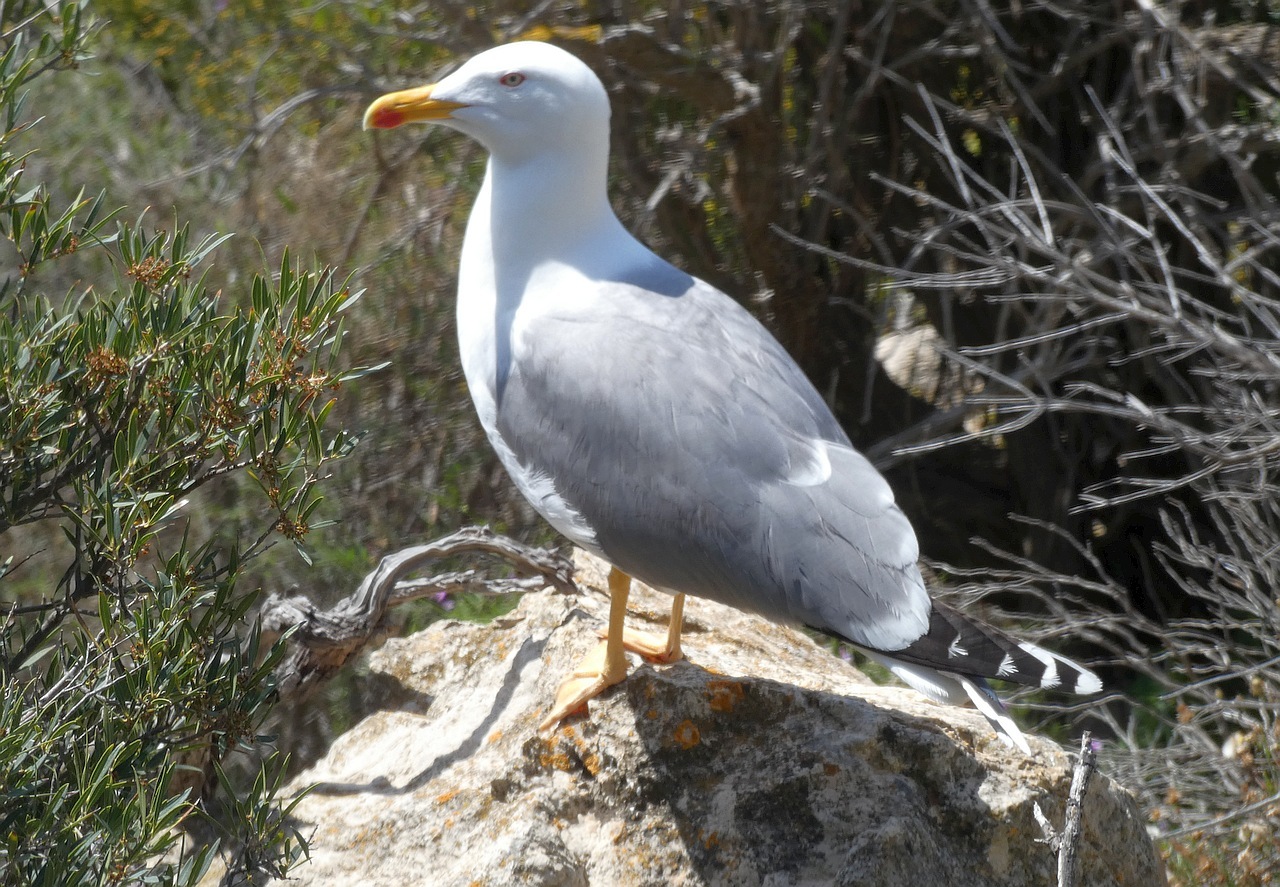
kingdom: Animalia
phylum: Chordata
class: Aves
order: Charadriiformes
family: Laridae
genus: Larus
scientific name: Larus michahellis
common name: Yellow-legged gull
